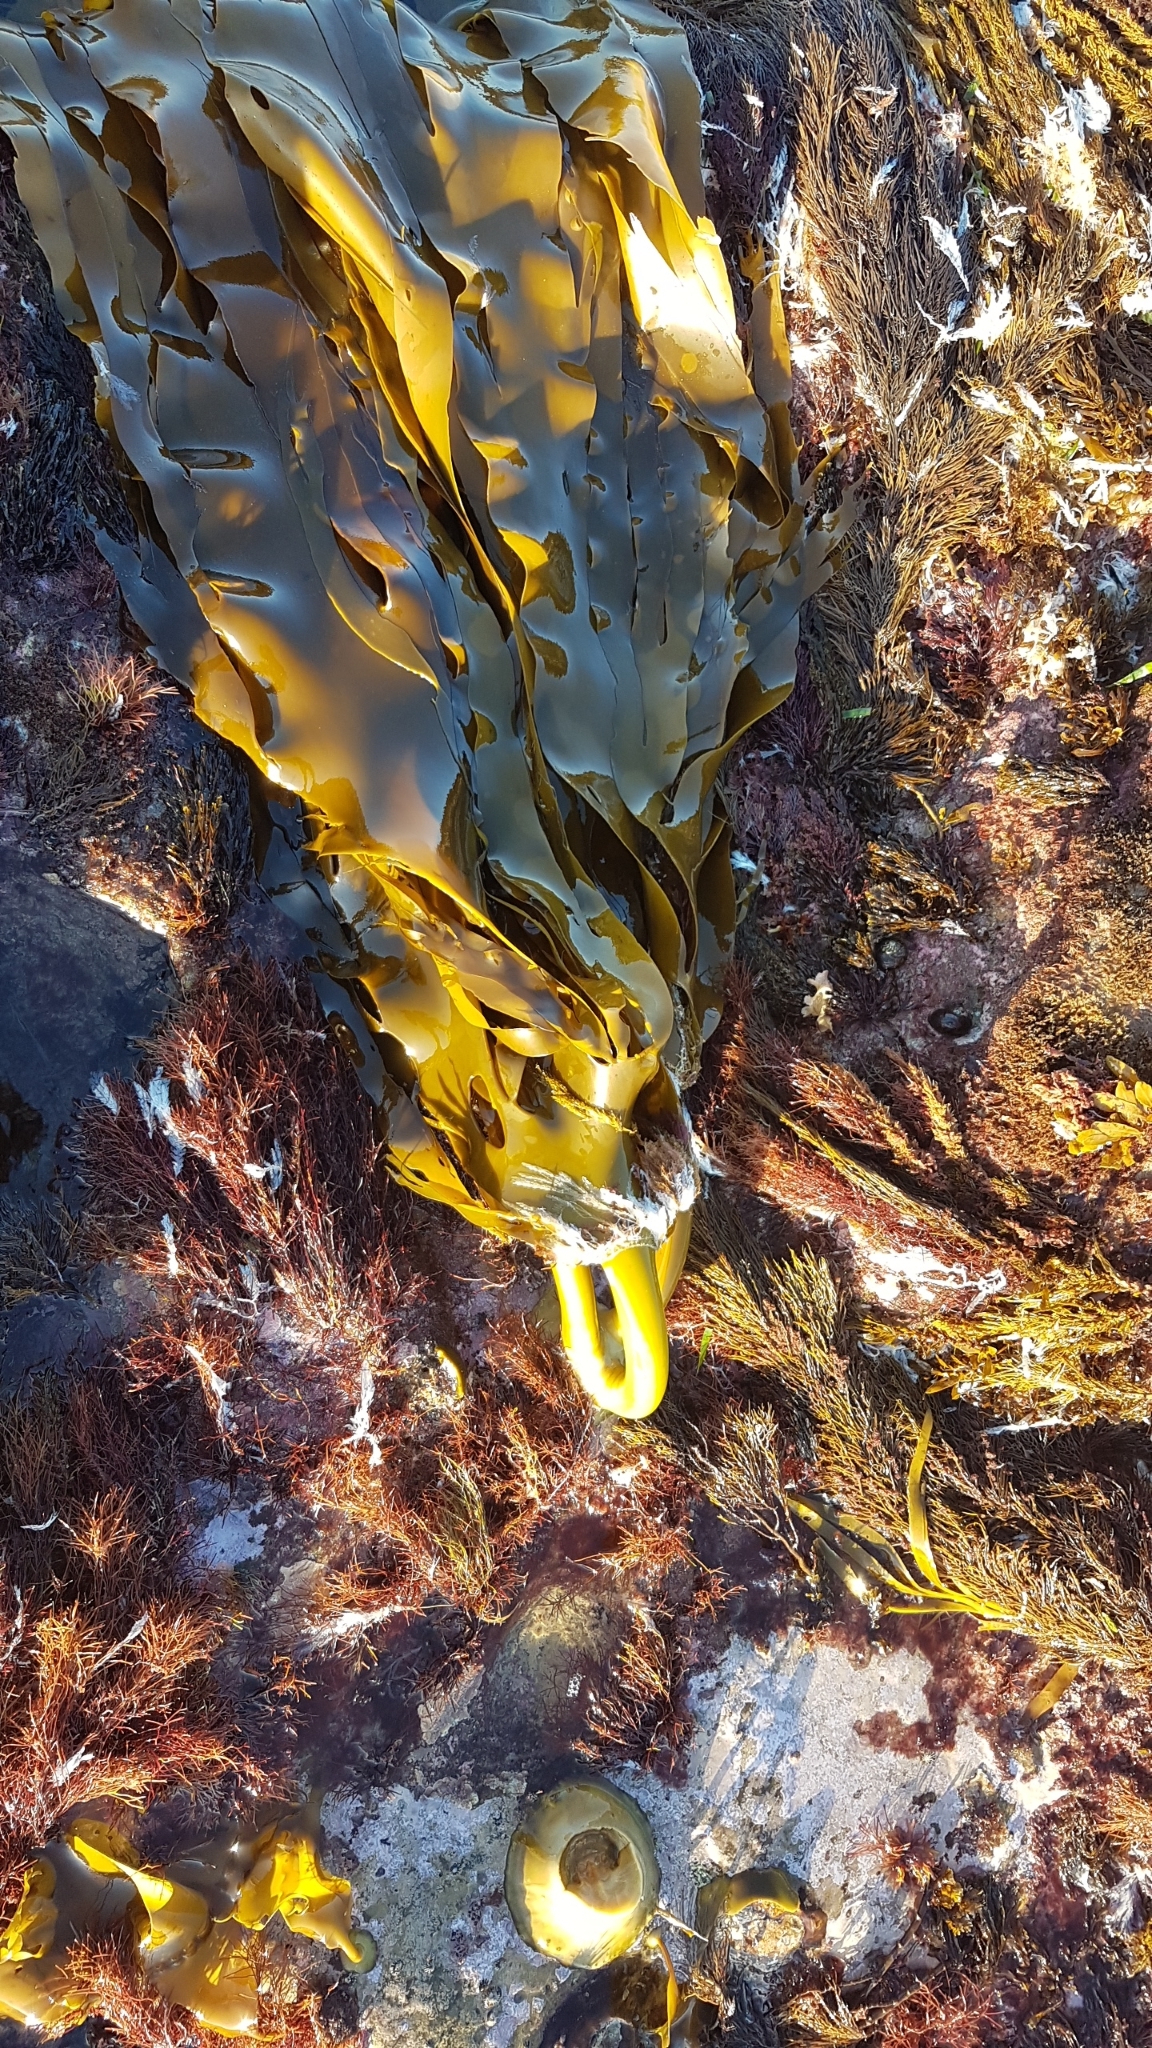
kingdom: Chromista
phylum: Ochrophyta
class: Phaeophyceae
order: Fucales
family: Durvillaeaceae
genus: Durvillaea
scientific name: Durvillaea
